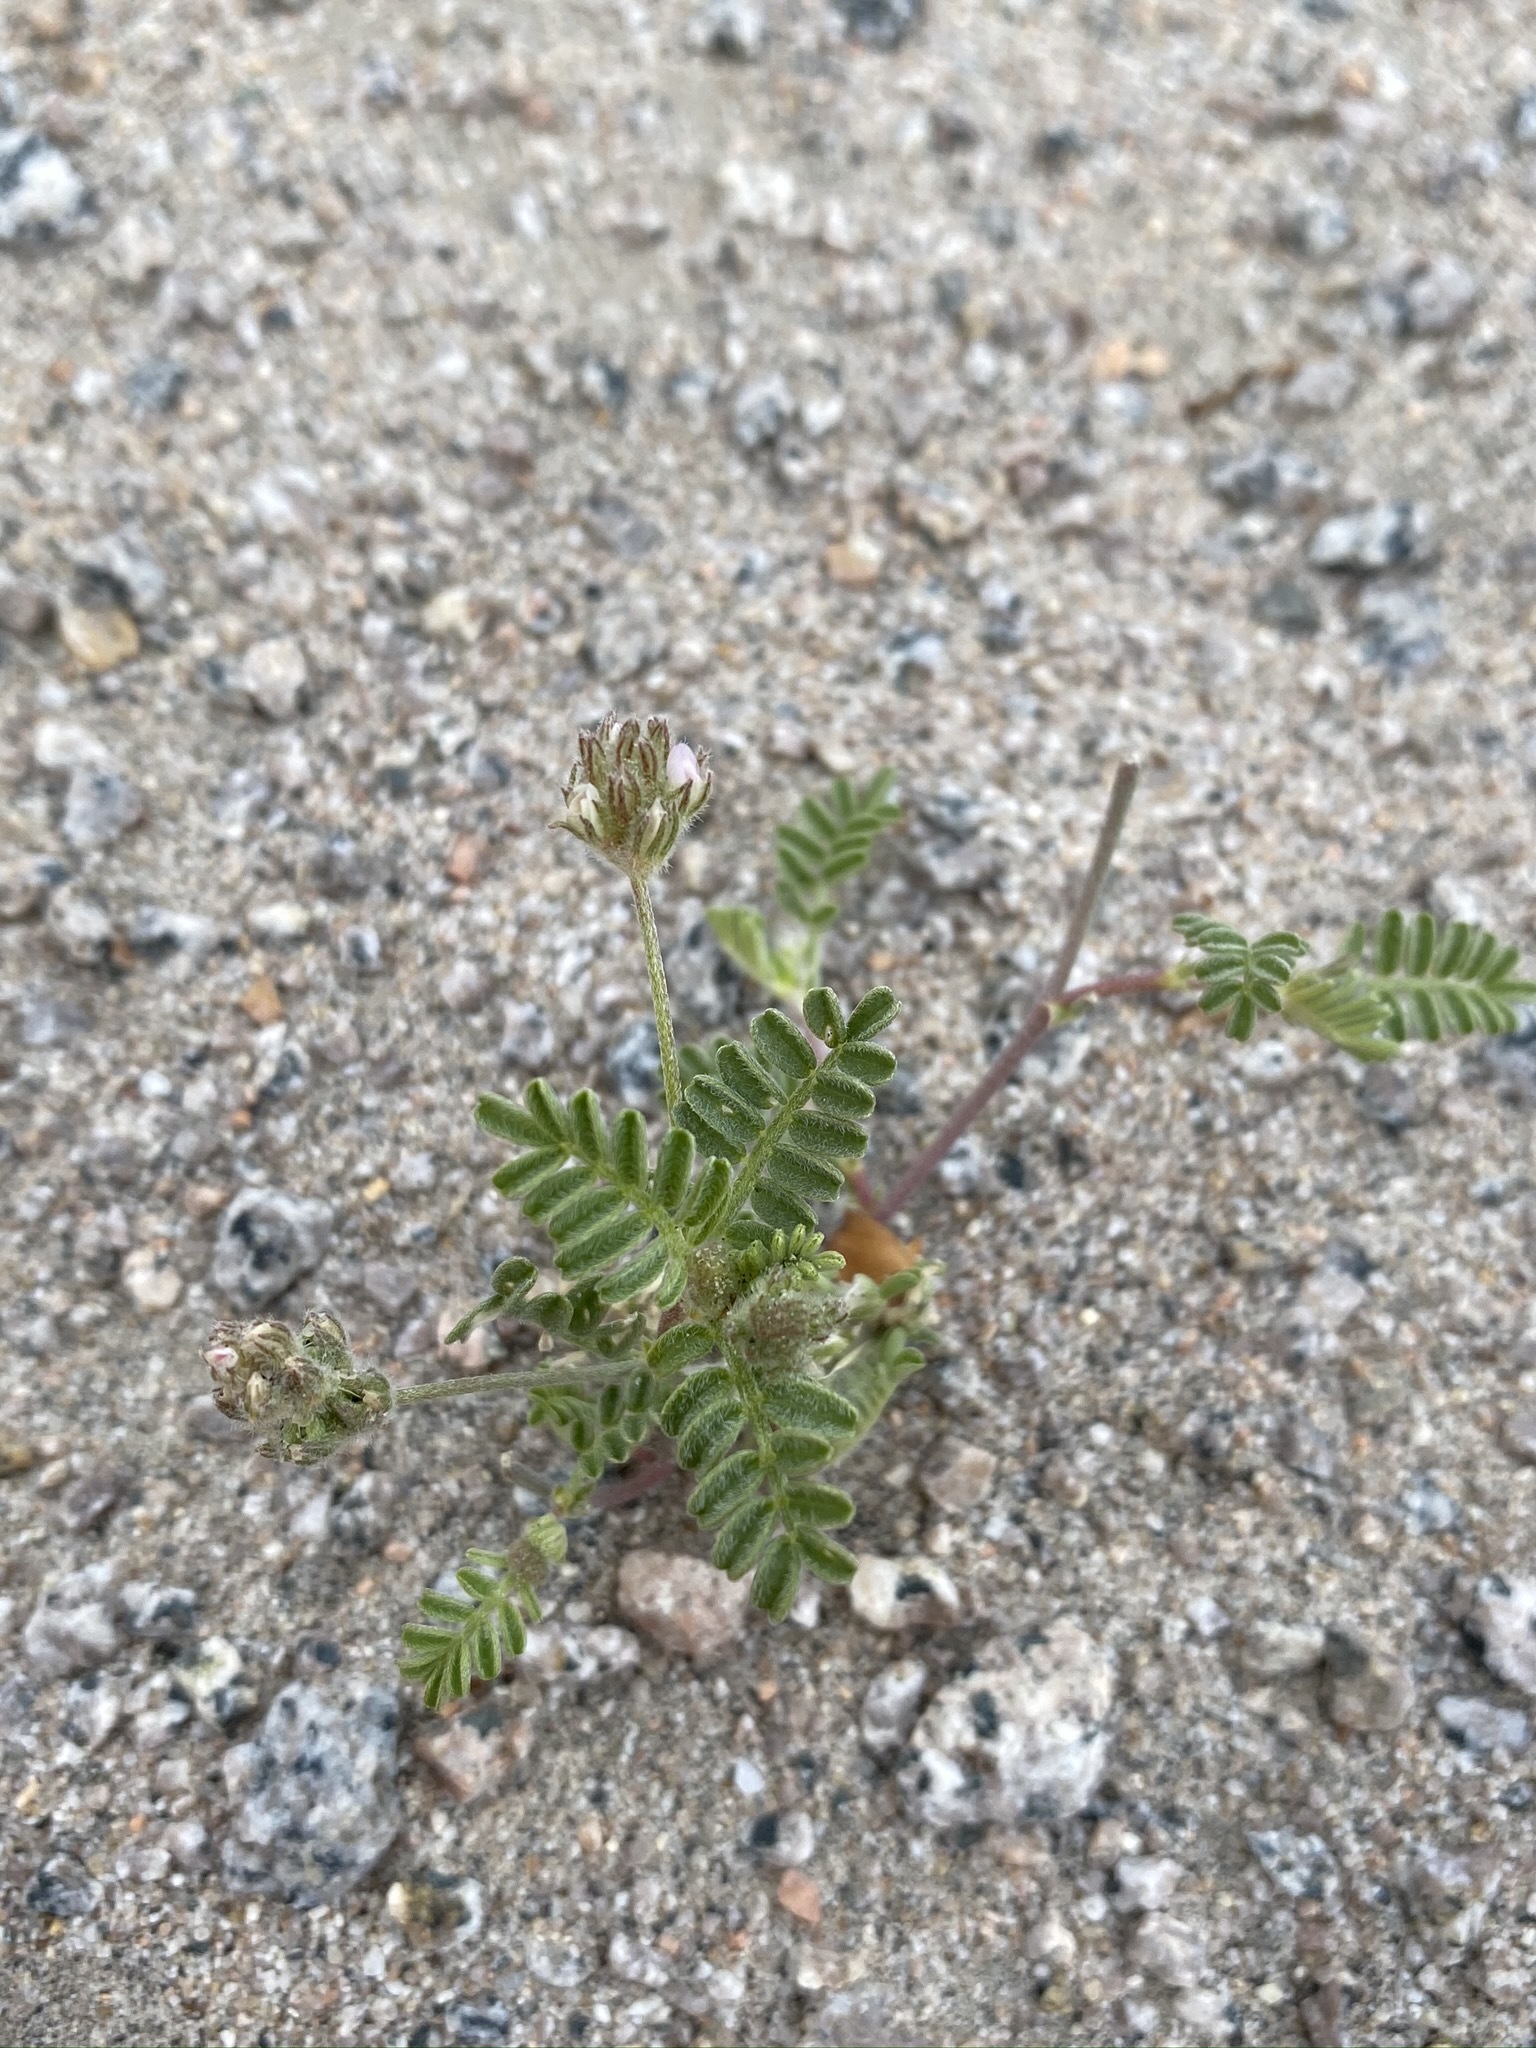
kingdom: Plantae
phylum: Tracheophyta
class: Magnoliopsida
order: Fabales
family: Fabaceae
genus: Astragalus
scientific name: Astragalus didymocarpus
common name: Dwarf white milkvetch
